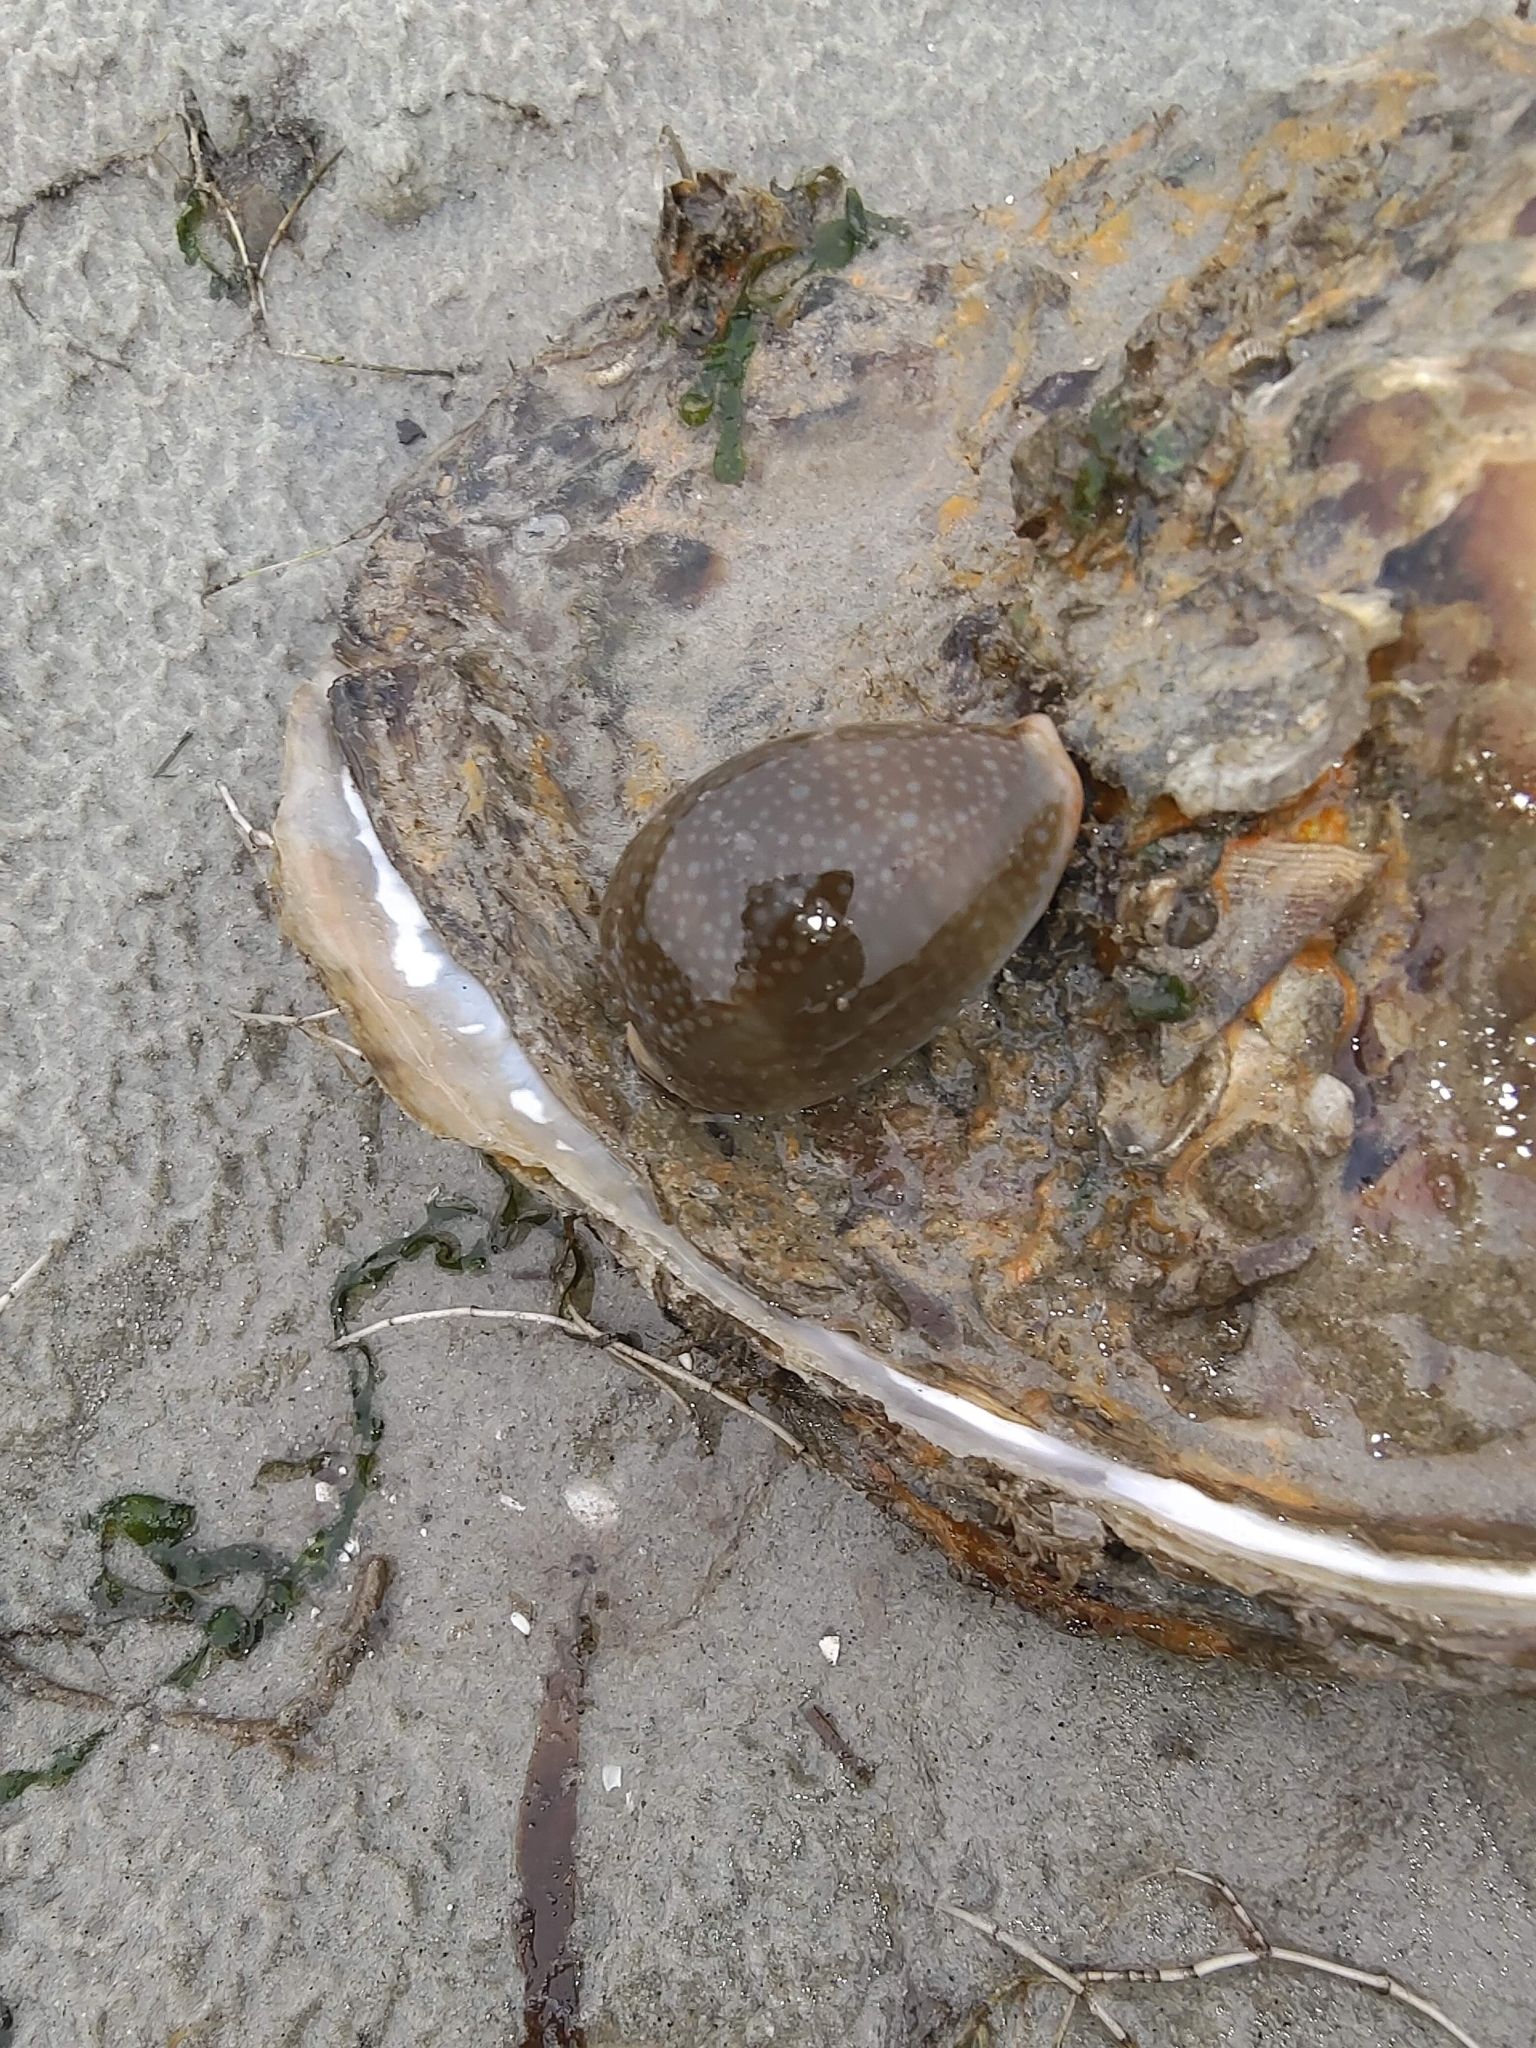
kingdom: Animalia
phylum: Mollusca
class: Gastropoda
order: Littorinimorpha
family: Cypraeidae
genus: Naria
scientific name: Naria miliaris
